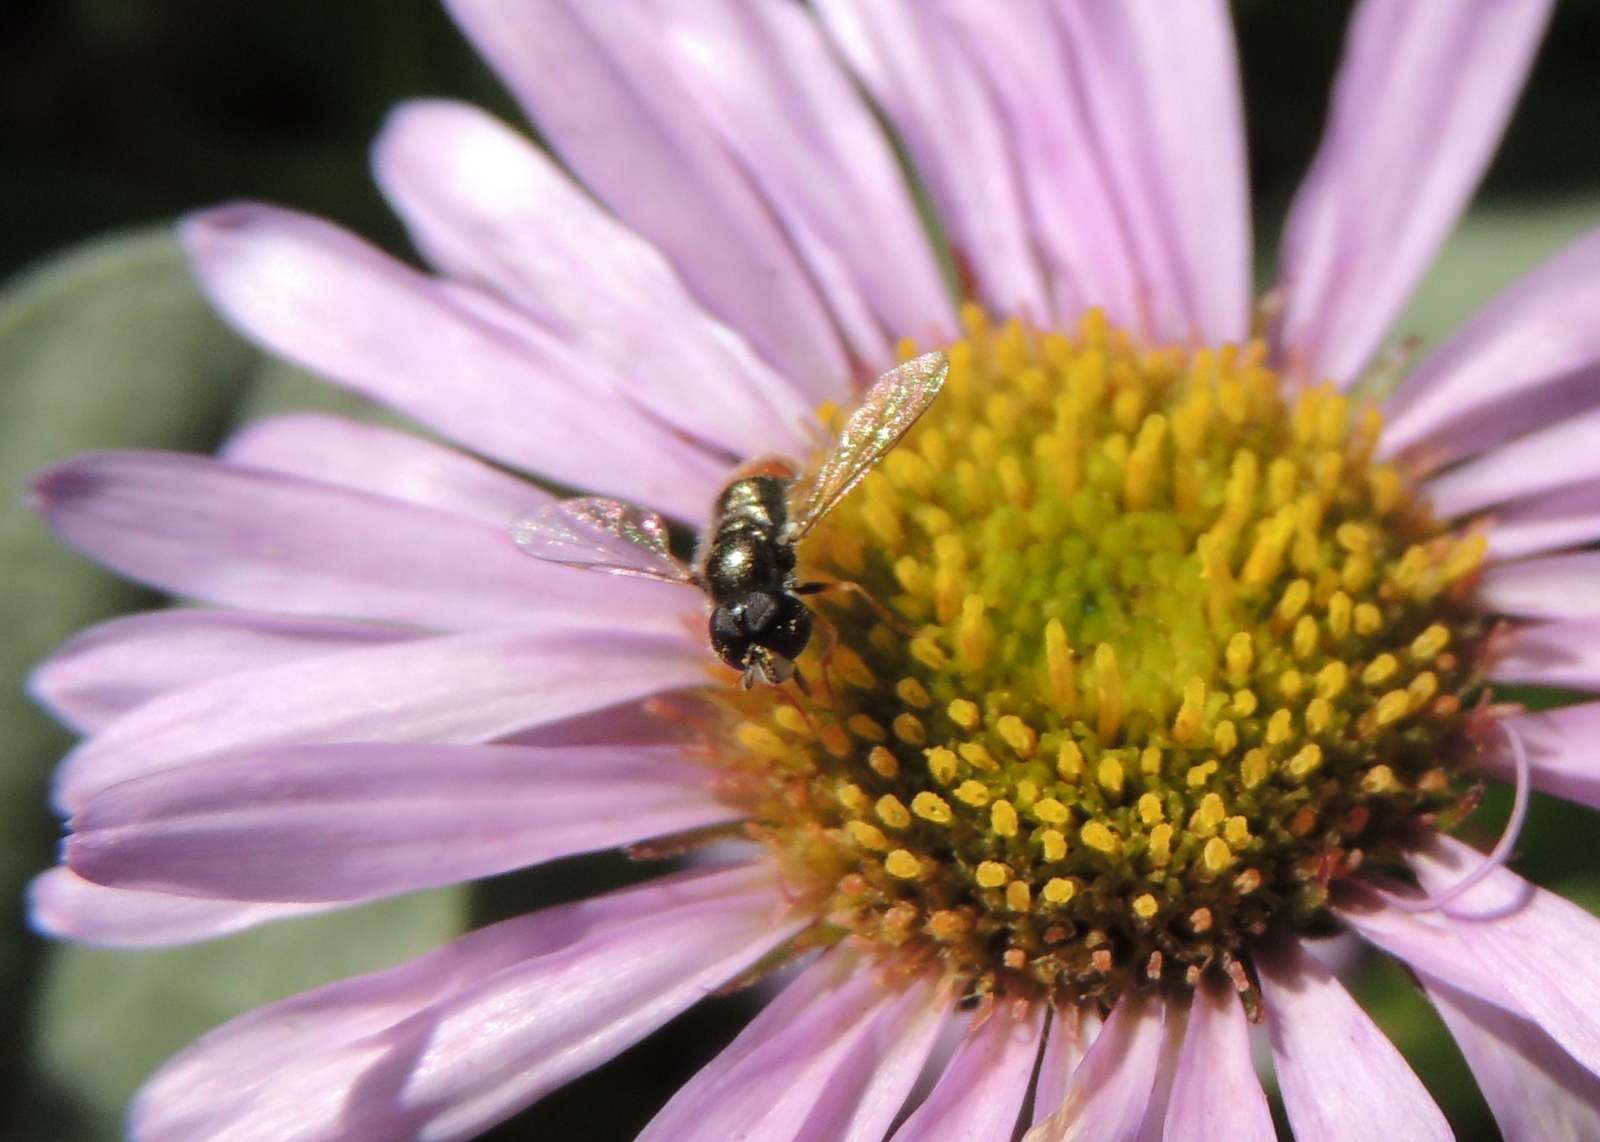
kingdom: Animalia
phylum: Arthropoda
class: Insecta
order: Diptera
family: Syrphidae
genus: Paragus
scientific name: Paragus haemorrhous
